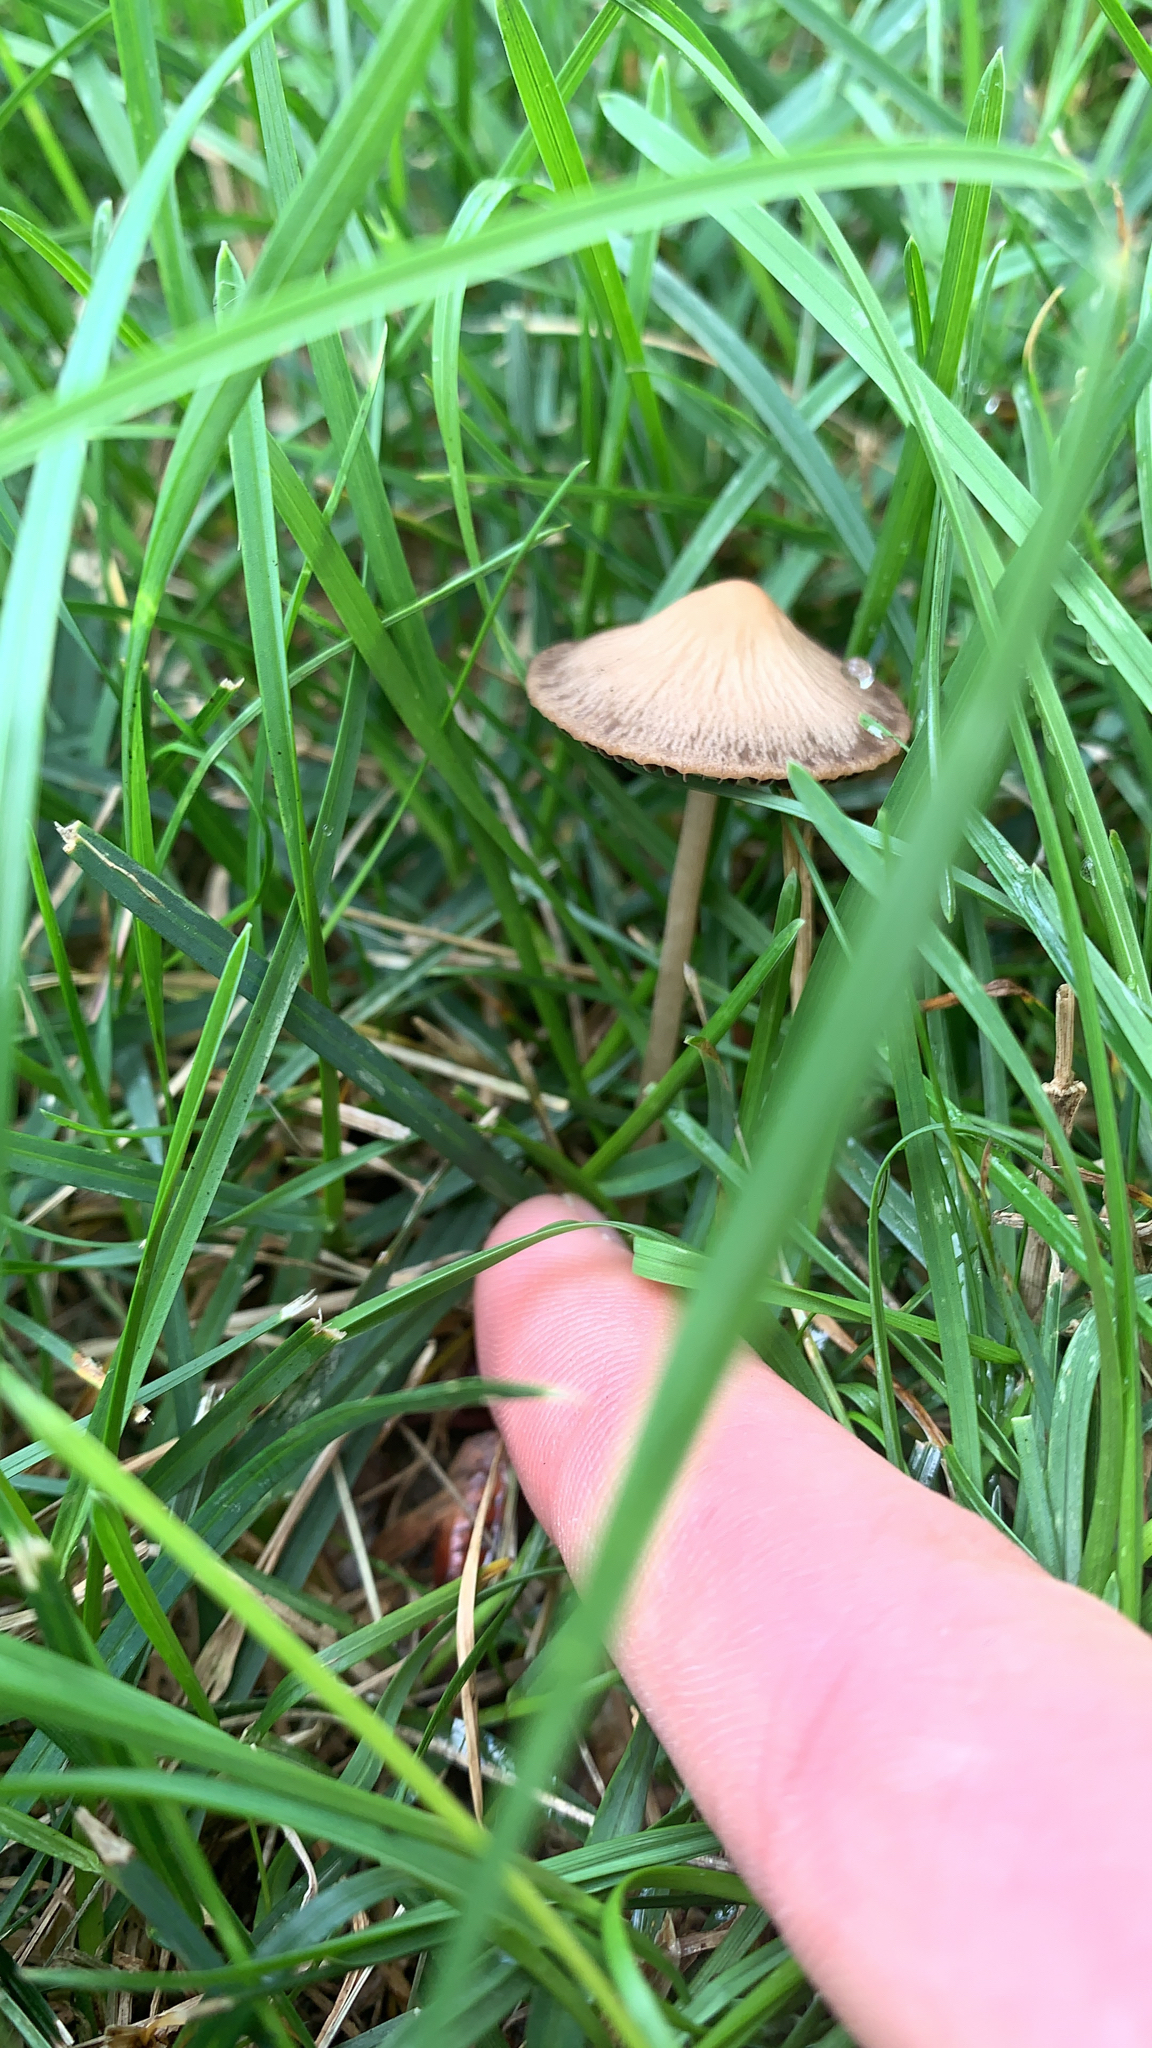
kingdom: Fungi
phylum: Basidiomycota
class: Agaricomycetes
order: Agaricales
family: Bolbitiaceae
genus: Conocybe
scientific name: Conocybe apala
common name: Milky conecap
